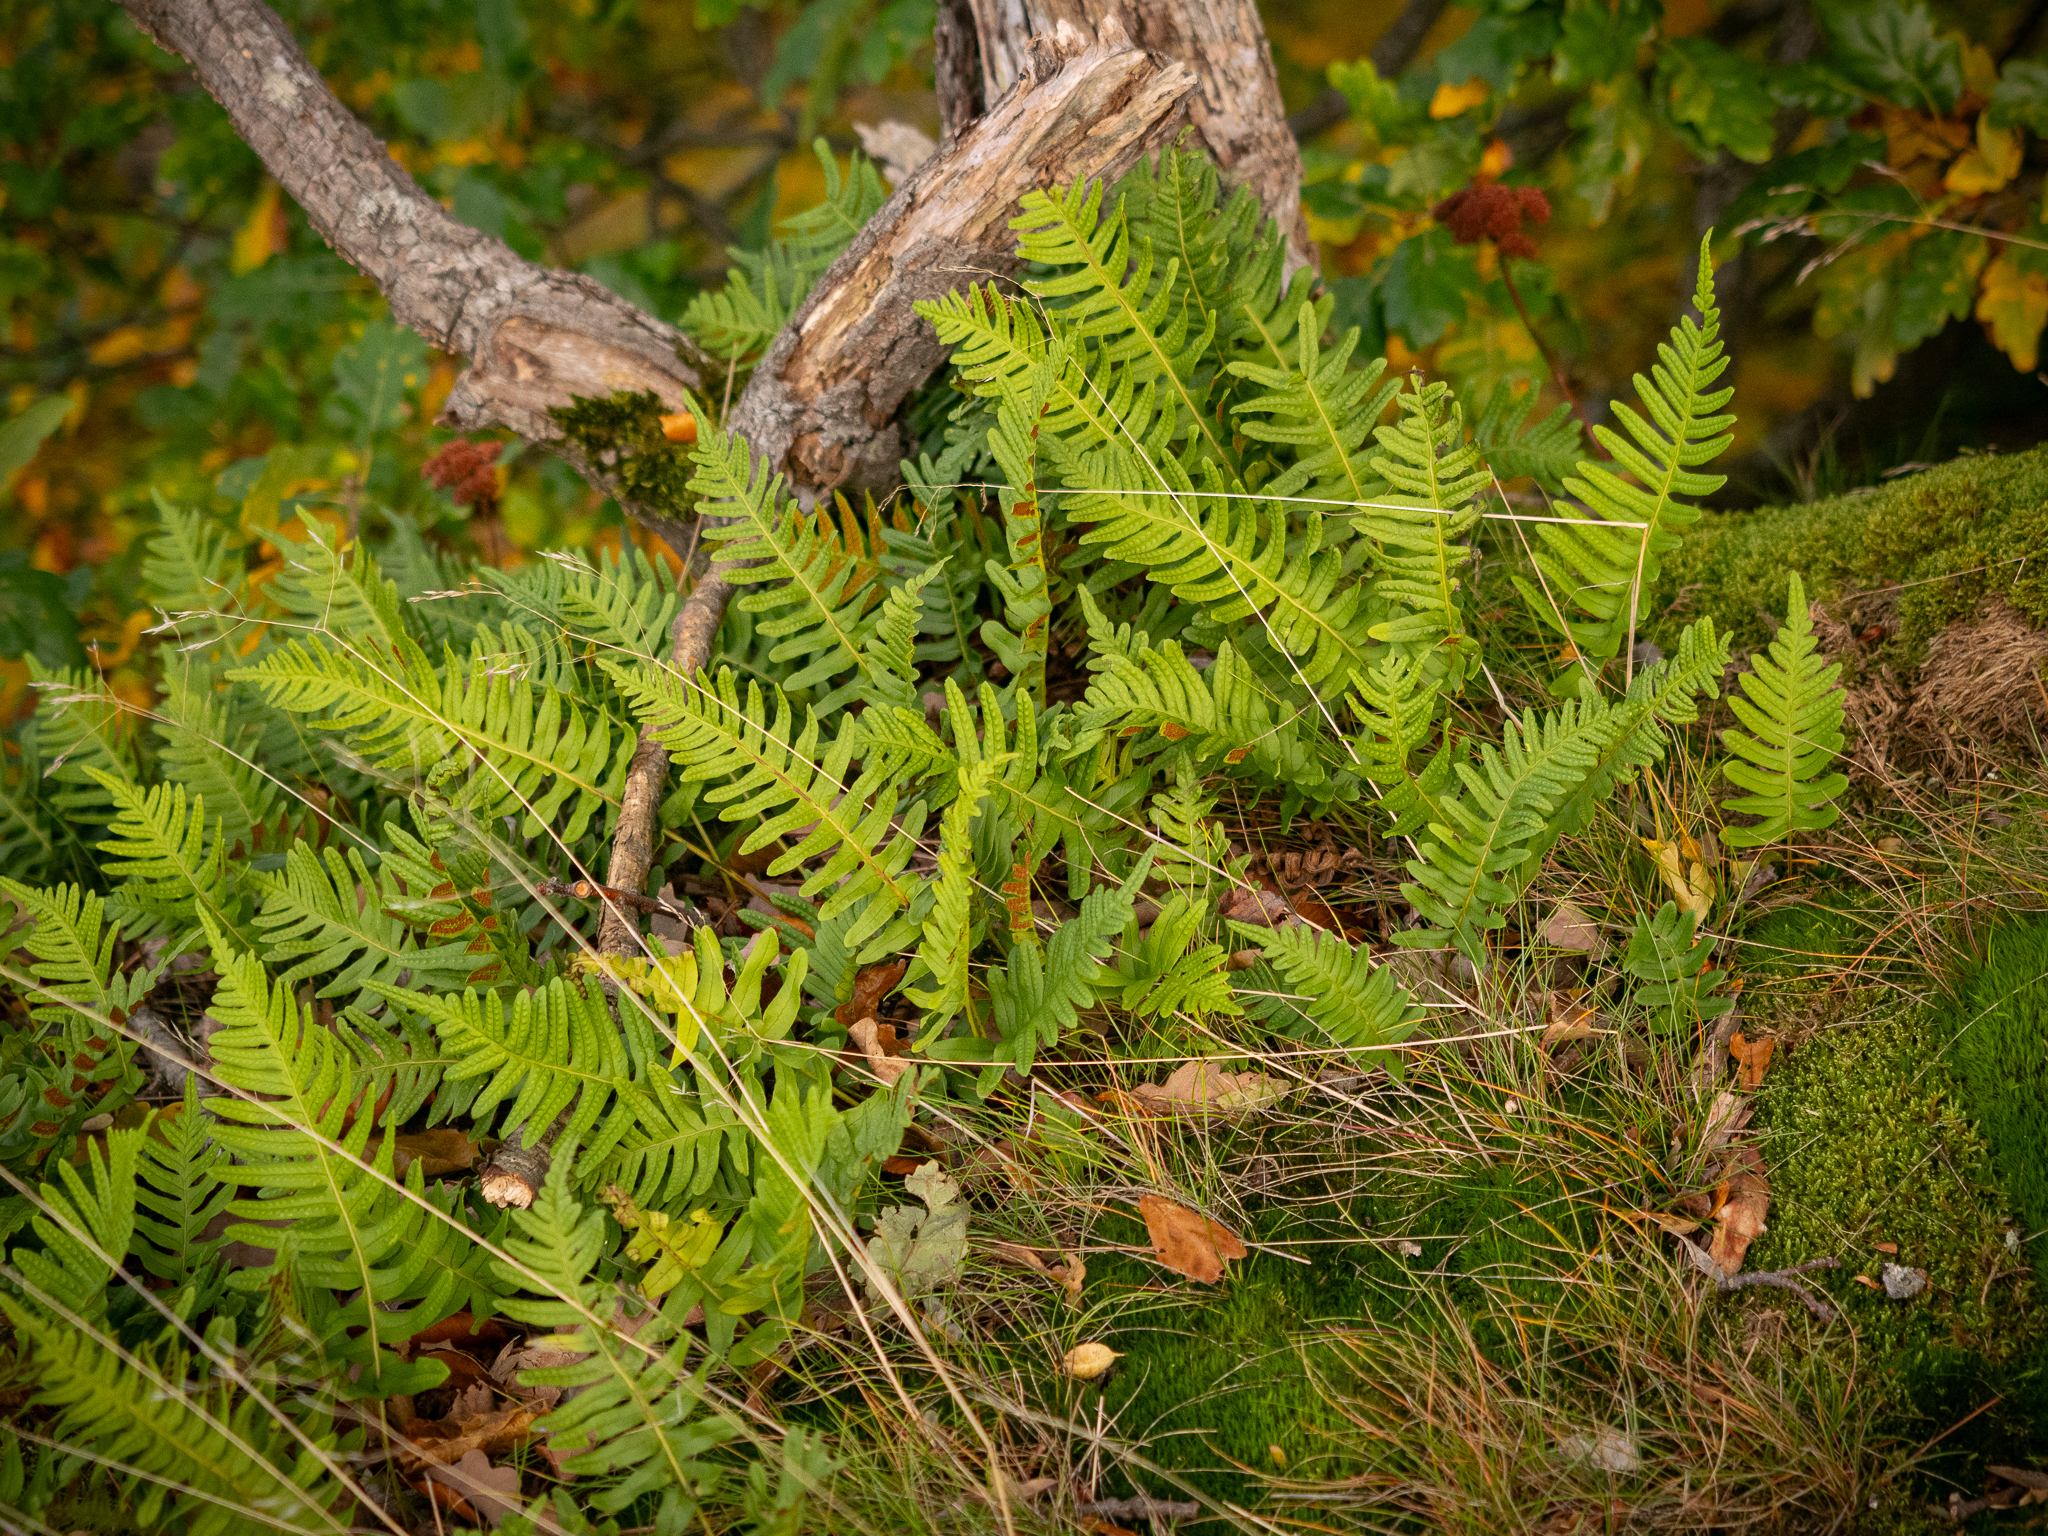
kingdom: Plantae
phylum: Tracheophyta
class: Polypodiopsida
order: Polypodiales
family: Polypodiaceae
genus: Polypodium
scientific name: Polypodium vulgare
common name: Common polypody
